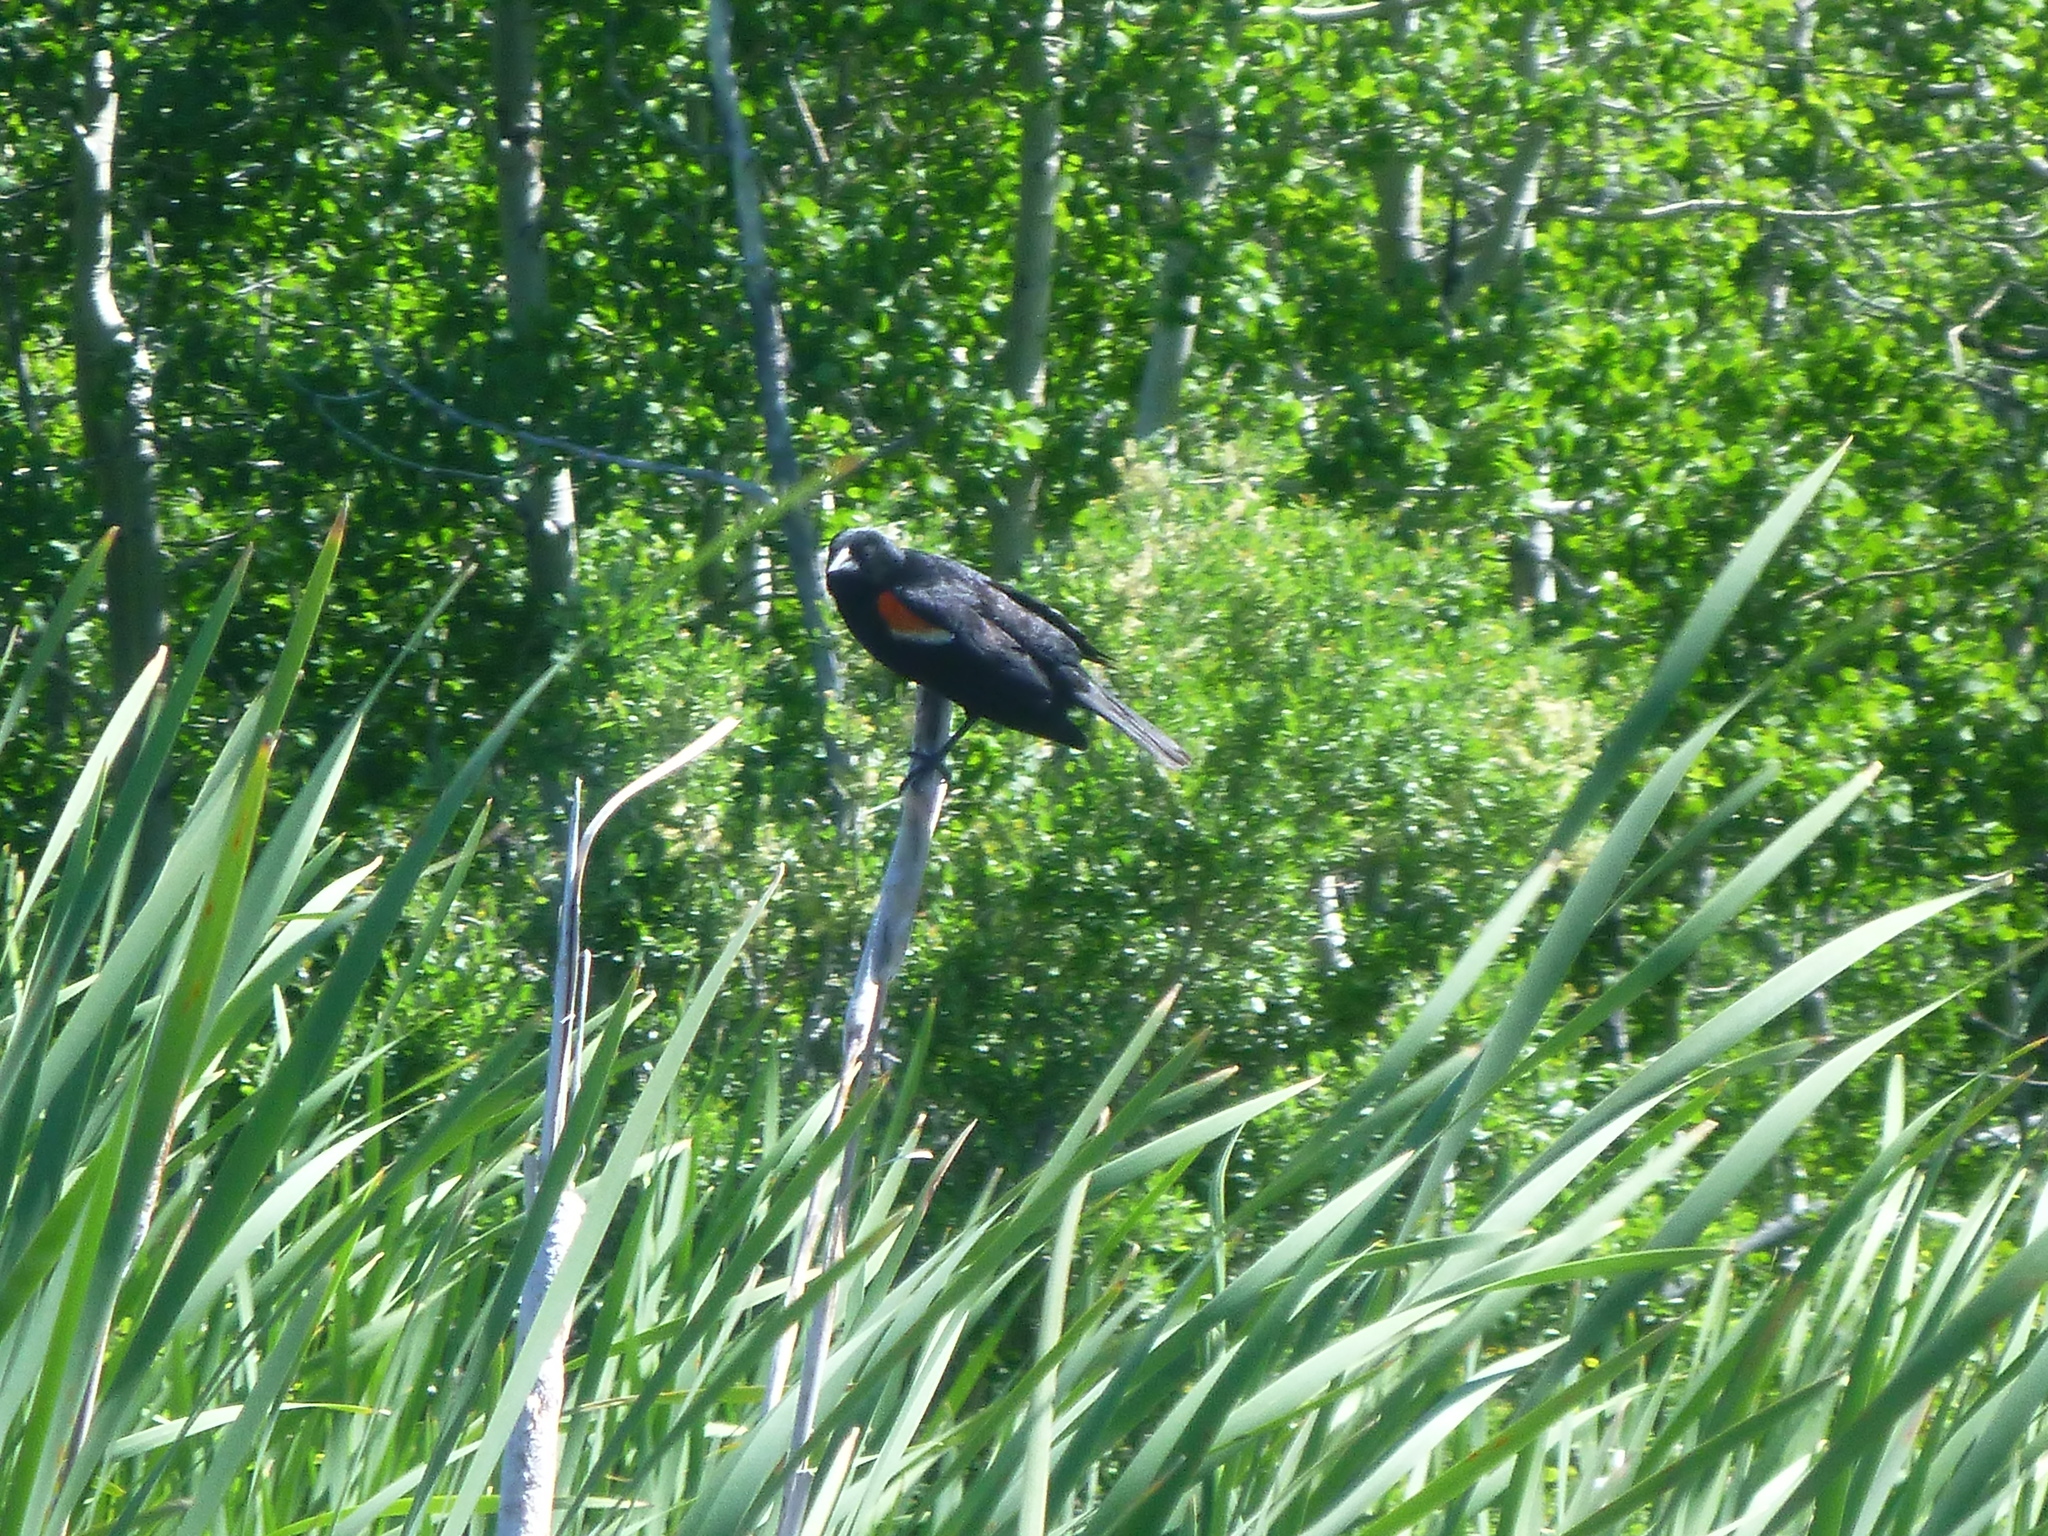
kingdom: Animalia
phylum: Chordata
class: Aves
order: Passeriformes
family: Icteridae
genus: Agelaius
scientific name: Agelaius phoeniceus
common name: Red-winged blackbird
